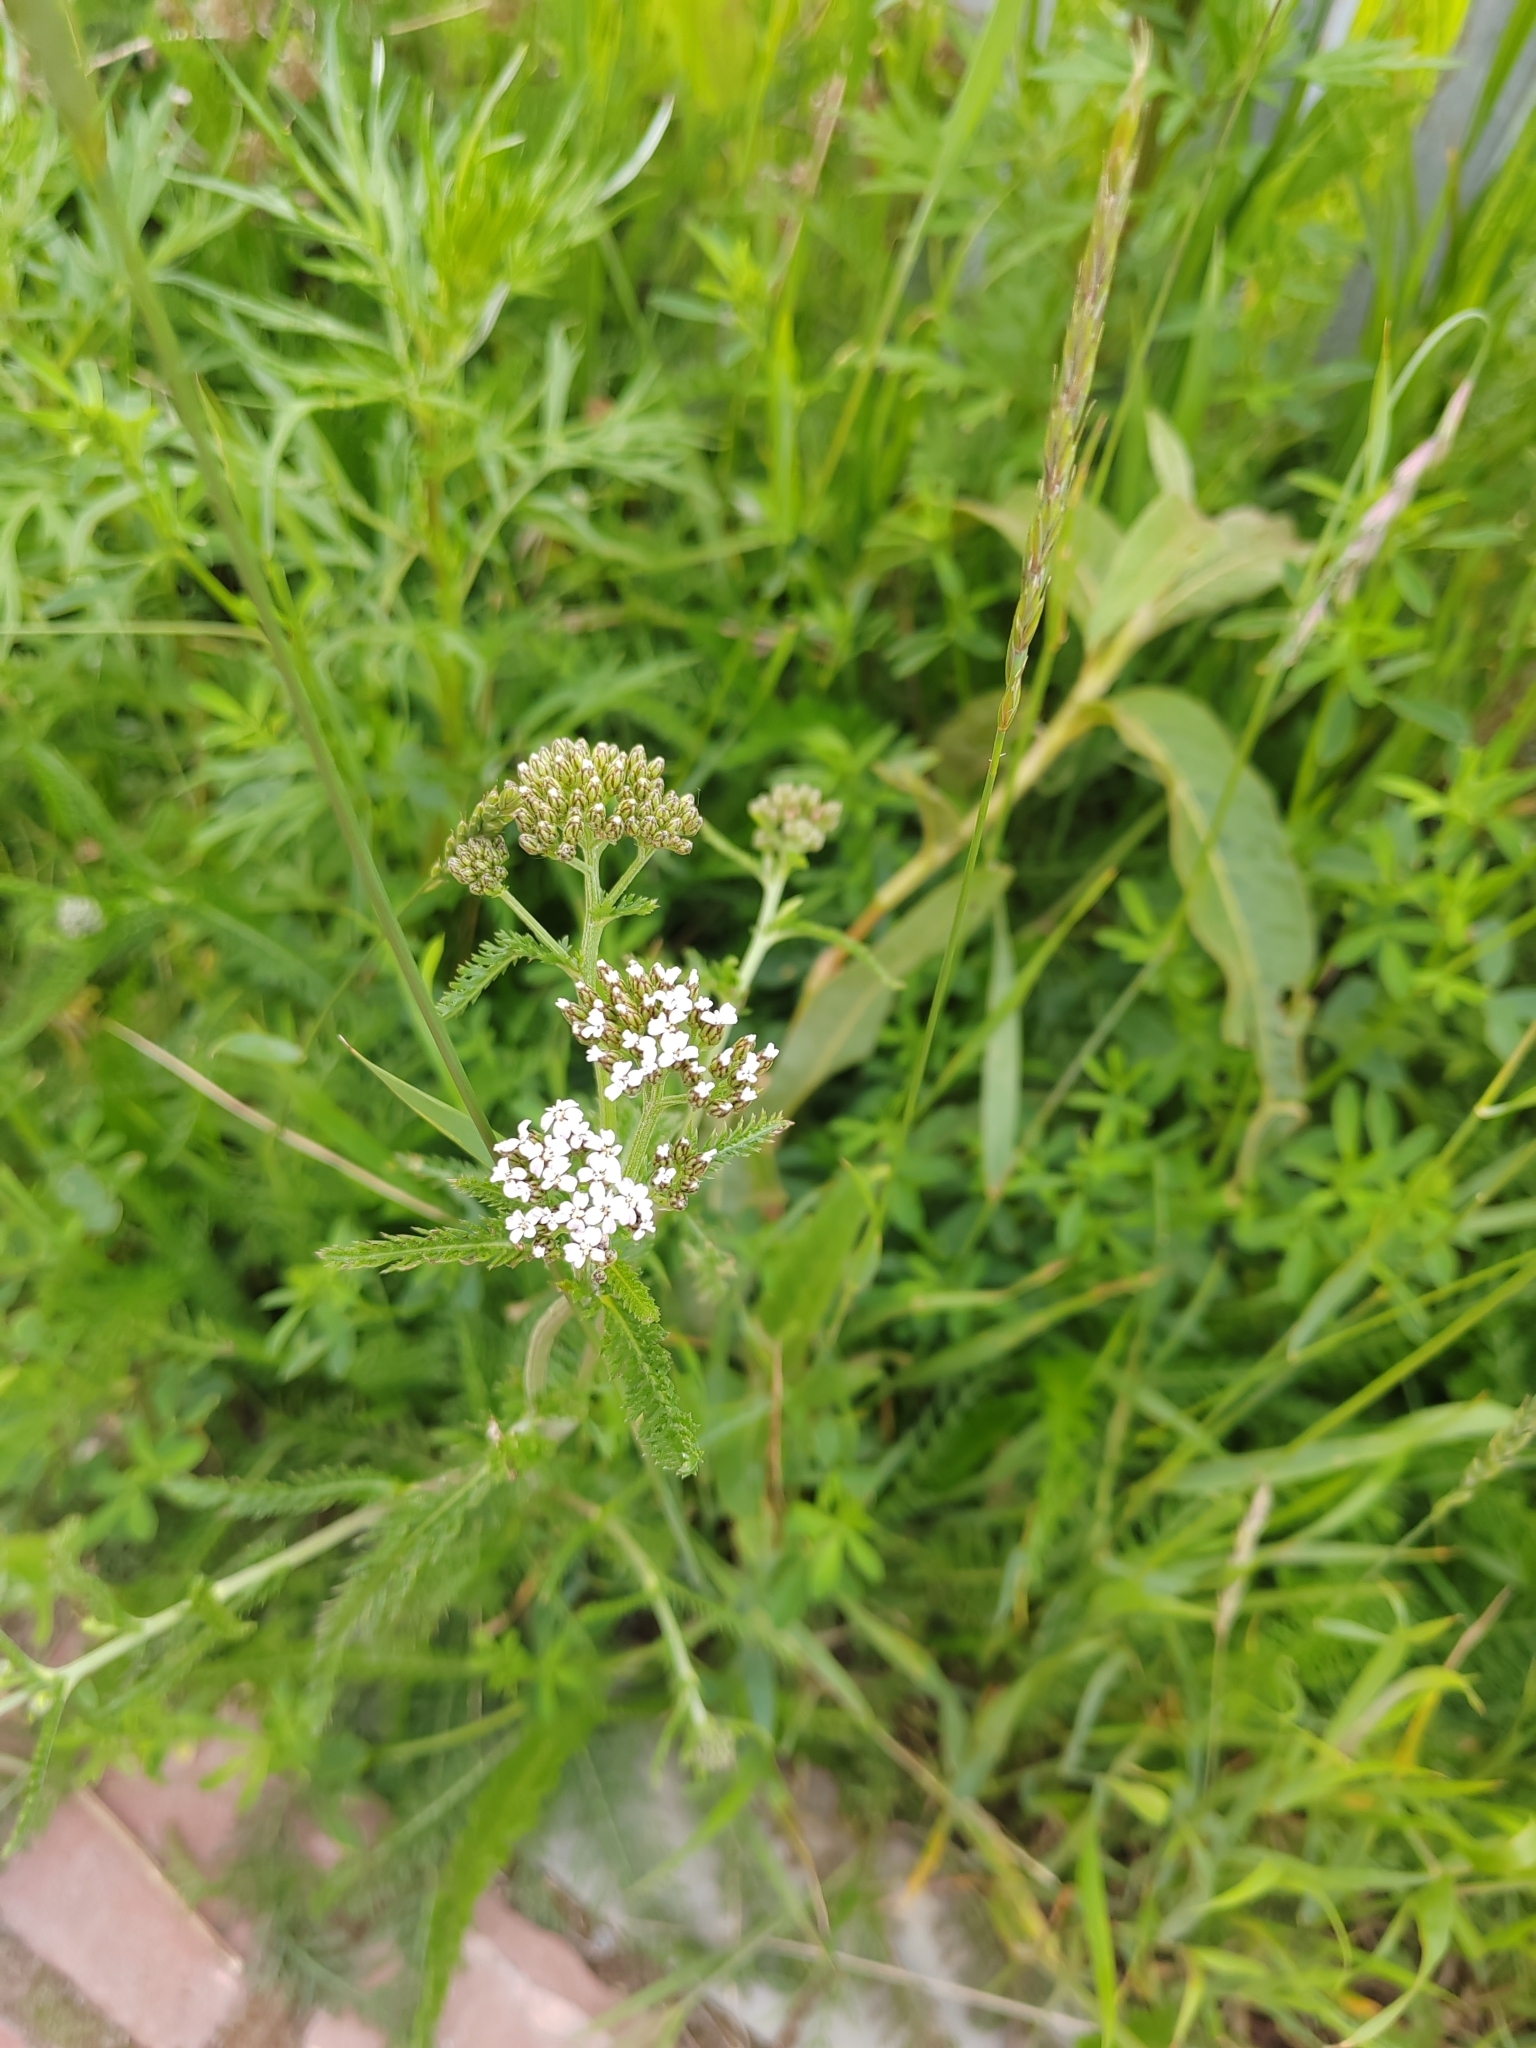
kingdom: Plantae
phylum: Tracheophyta
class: Magnoliopsida
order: Asterales
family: Asteraceae
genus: Achillea
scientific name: Achillea millefolium
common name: Yarrow
